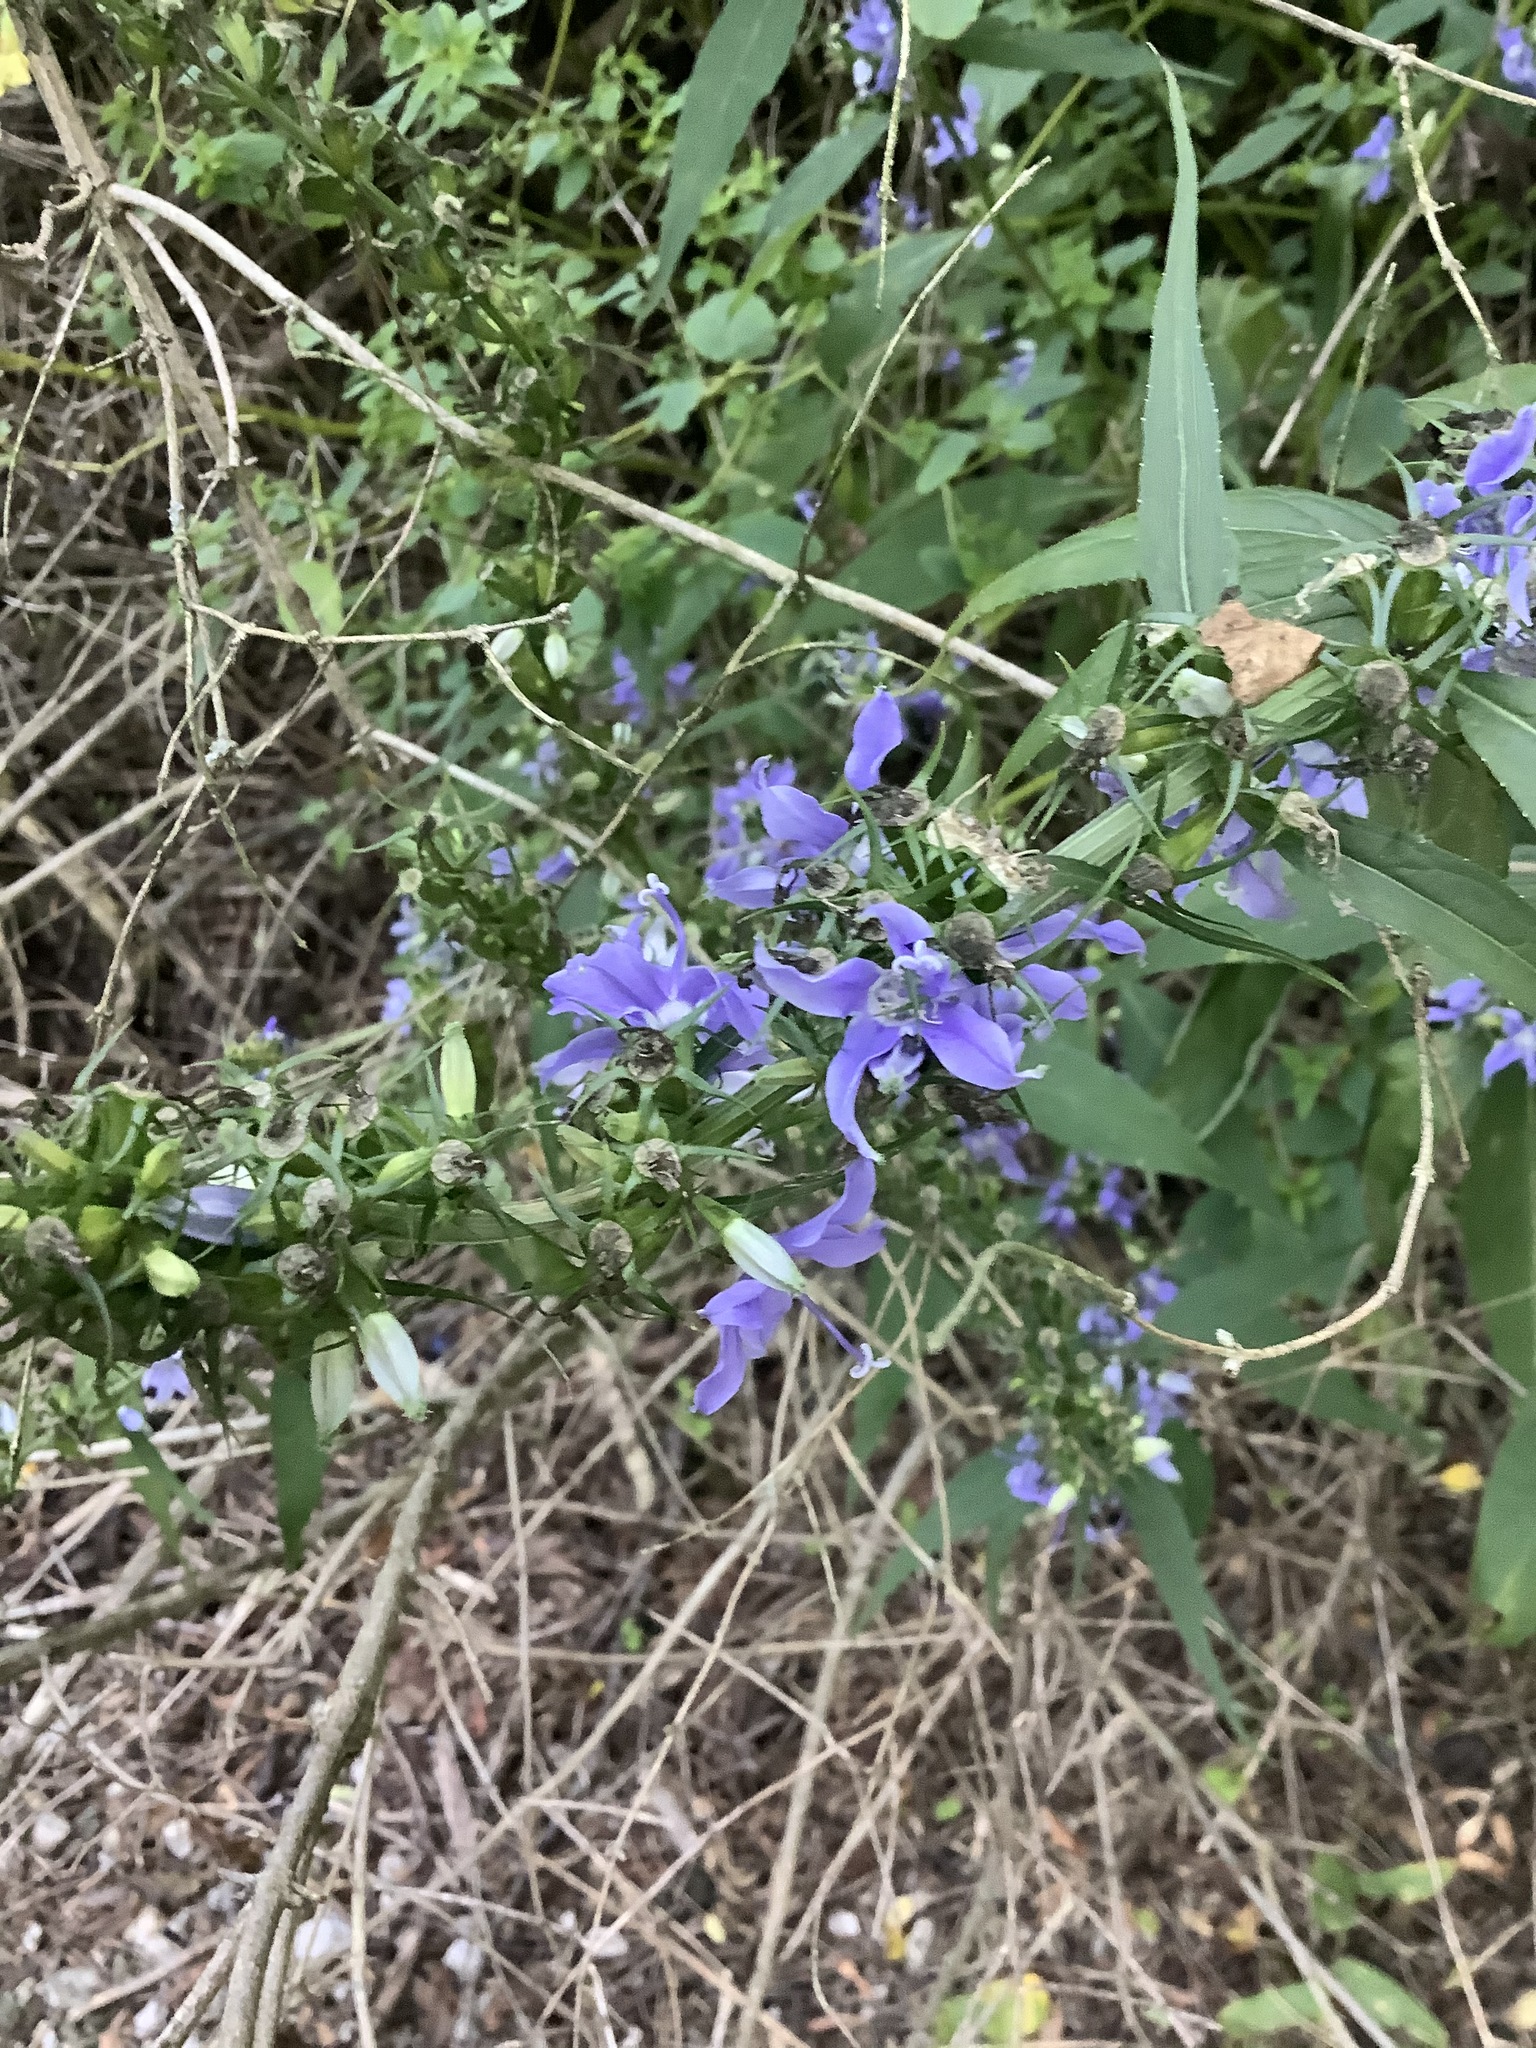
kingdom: Plantae
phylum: Tracheophyta
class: Magnoliopsida
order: Asterales
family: Campanulaceae
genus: Campanulastrum
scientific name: Campanulastrum americanum
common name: American bellflower
